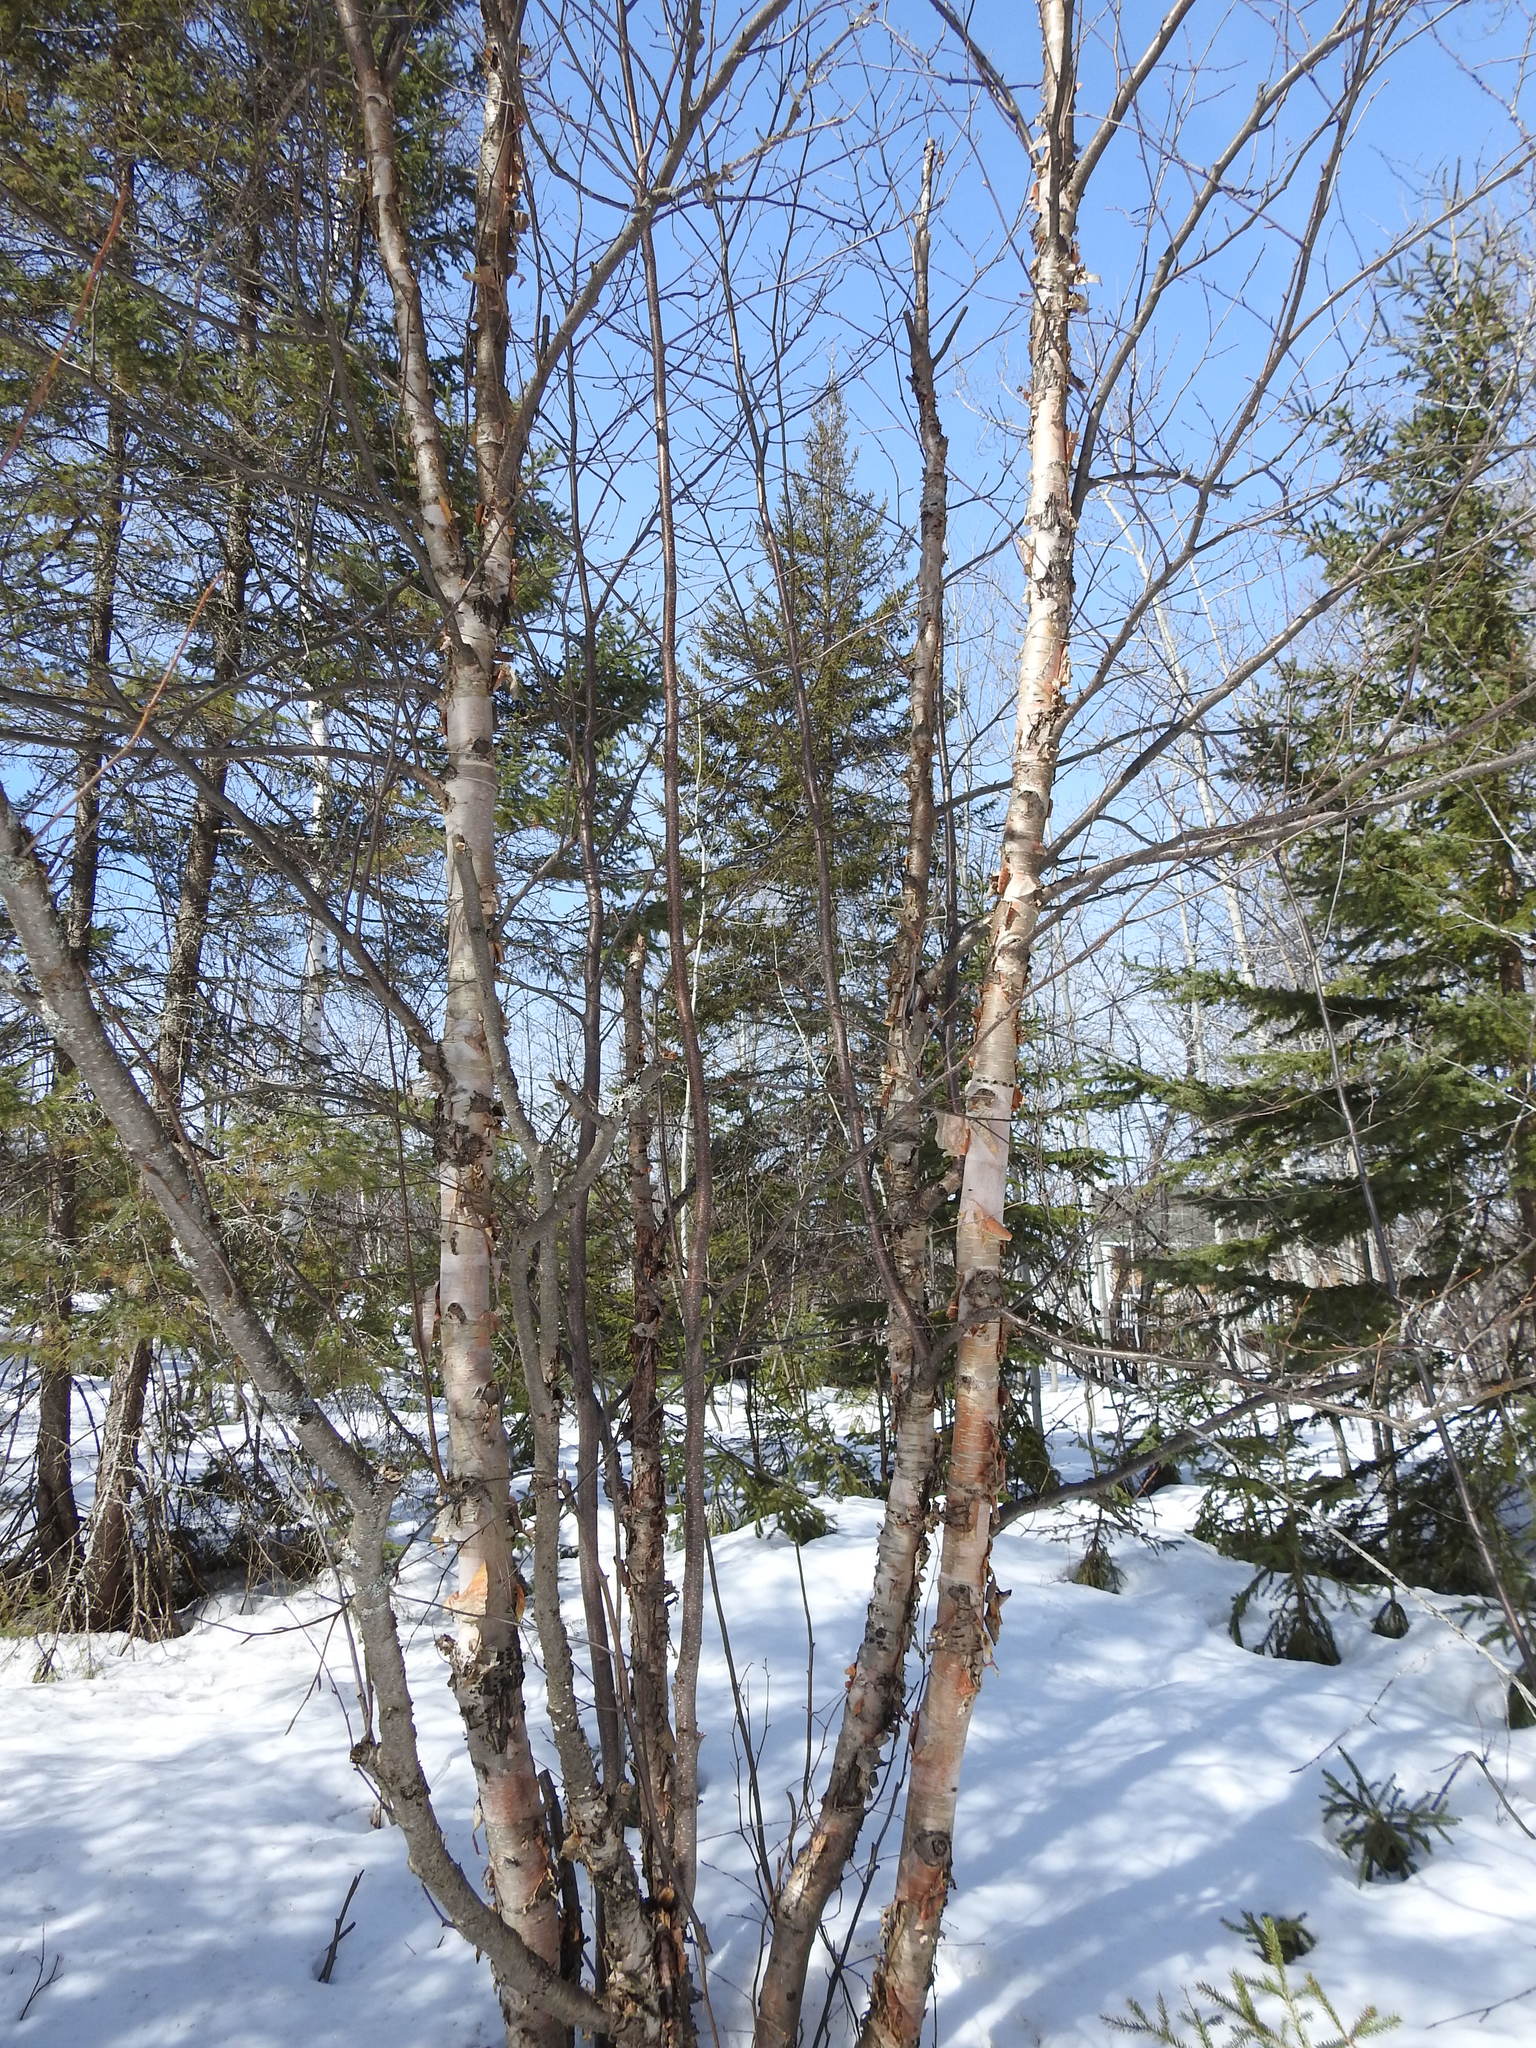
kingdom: Plantae
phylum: Tracheophyta
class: Magnoliopsida
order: Fagales
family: Betulaceae
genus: Betula
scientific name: Betula cordifolia
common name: Mountain white birch
